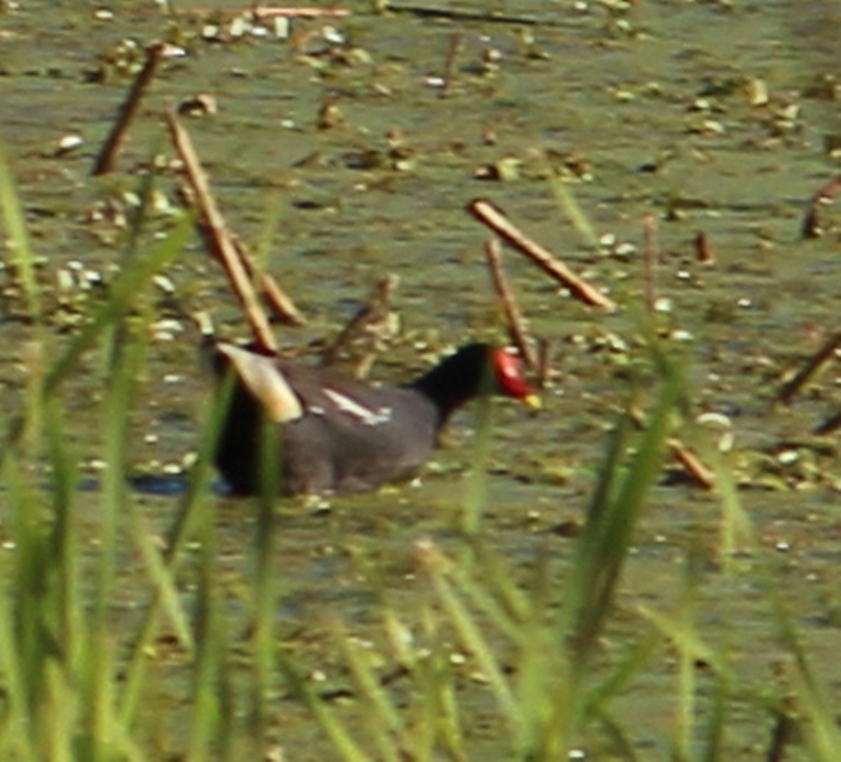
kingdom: Animalia
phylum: Chordata
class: Aves
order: Gruiformes
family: Rallidae
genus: Gallinula
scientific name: Gallinula chloropus
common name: Common moorhen
